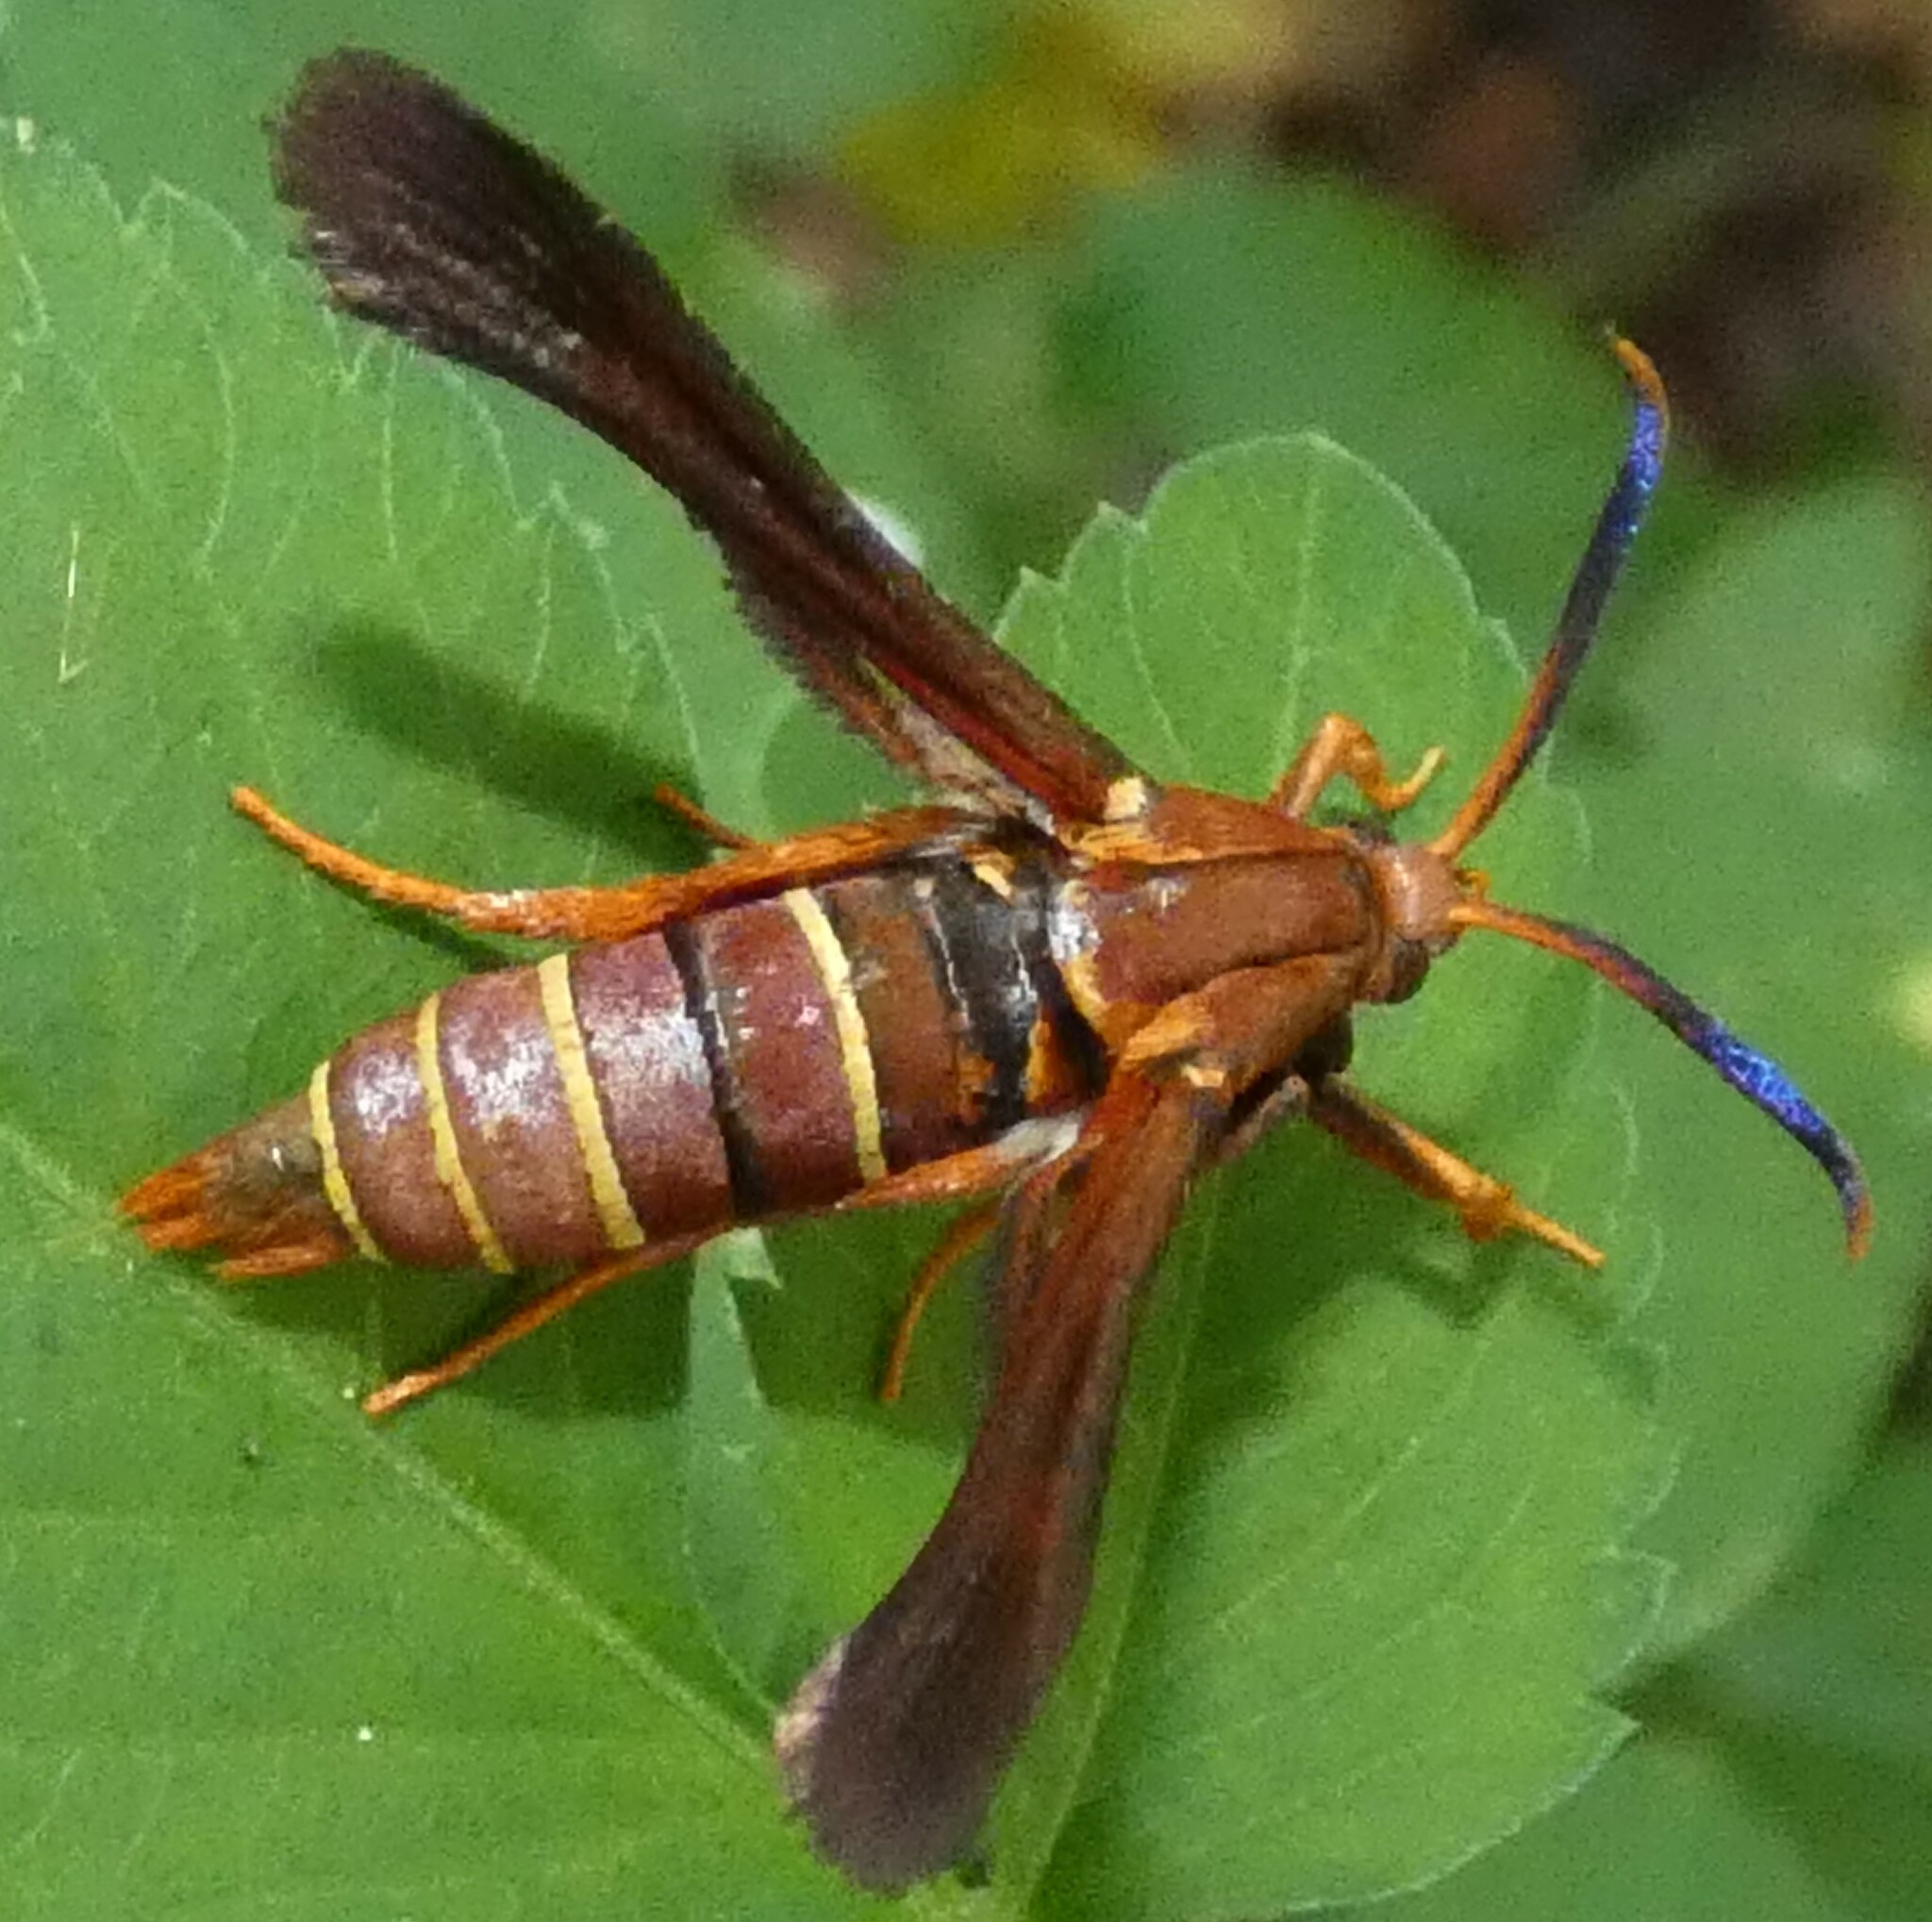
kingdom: Animalia
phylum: Arthropoda
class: Insecta
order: Lepidoptera
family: Sesiidae
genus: Vitacea
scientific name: Vitacea polistiformis
